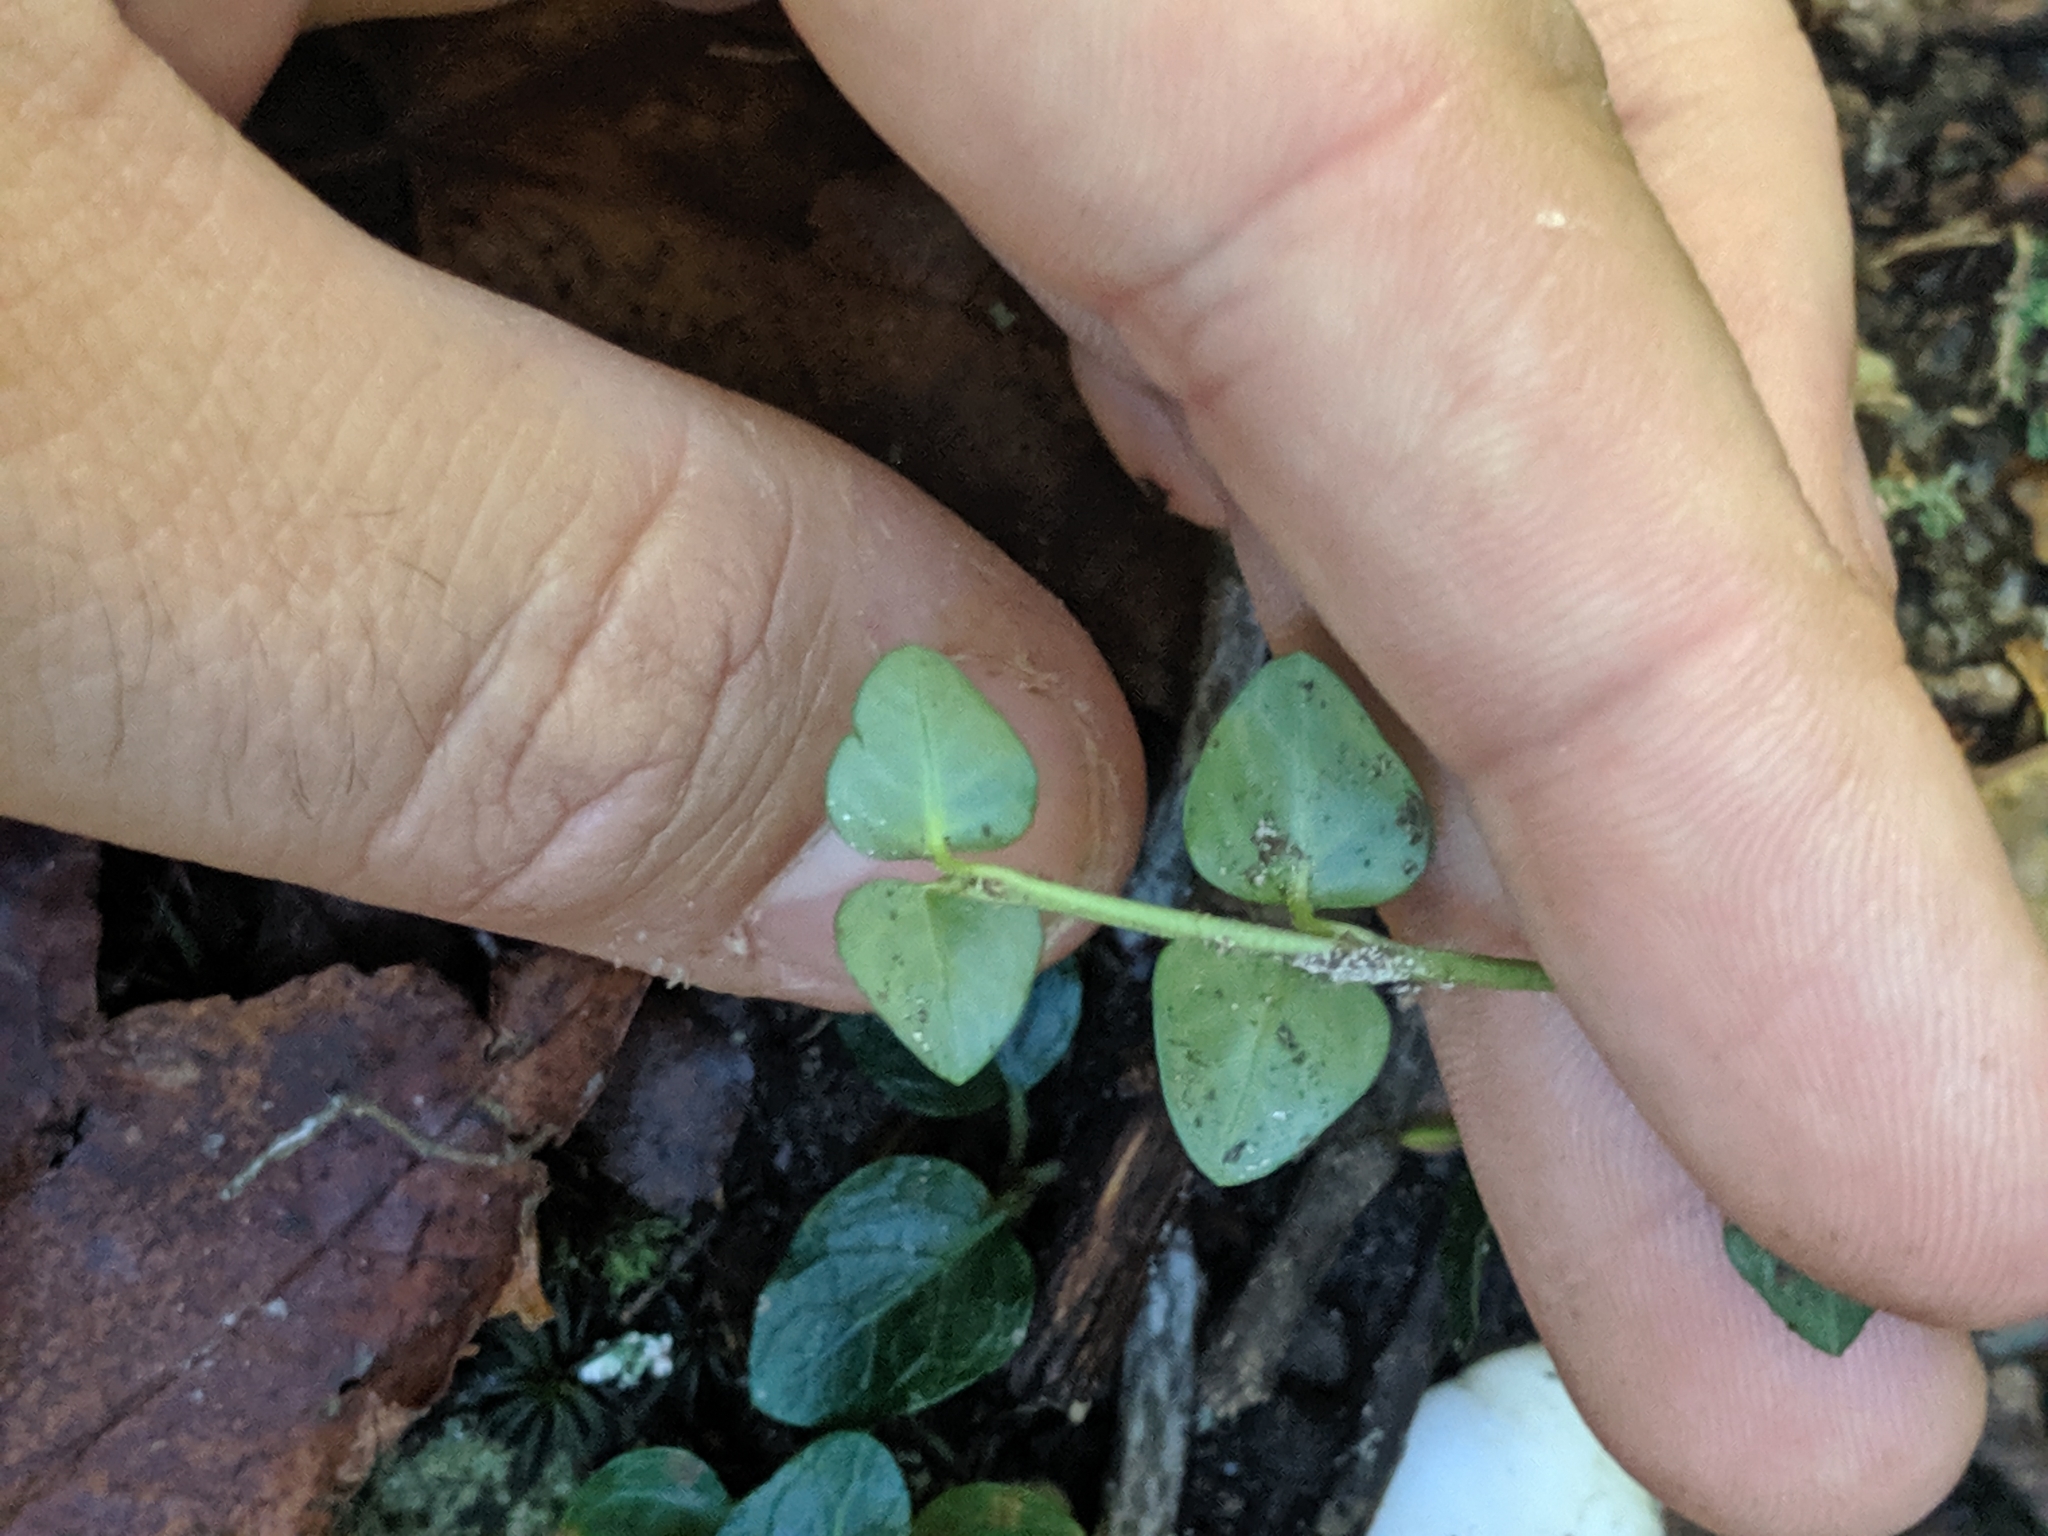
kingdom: Plantae
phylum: Tracheophyta
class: Magnoliopsida
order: Gentianales
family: Rubiaceae
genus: Mitchella
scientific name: Mitchella repens
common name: Partridge-berry
